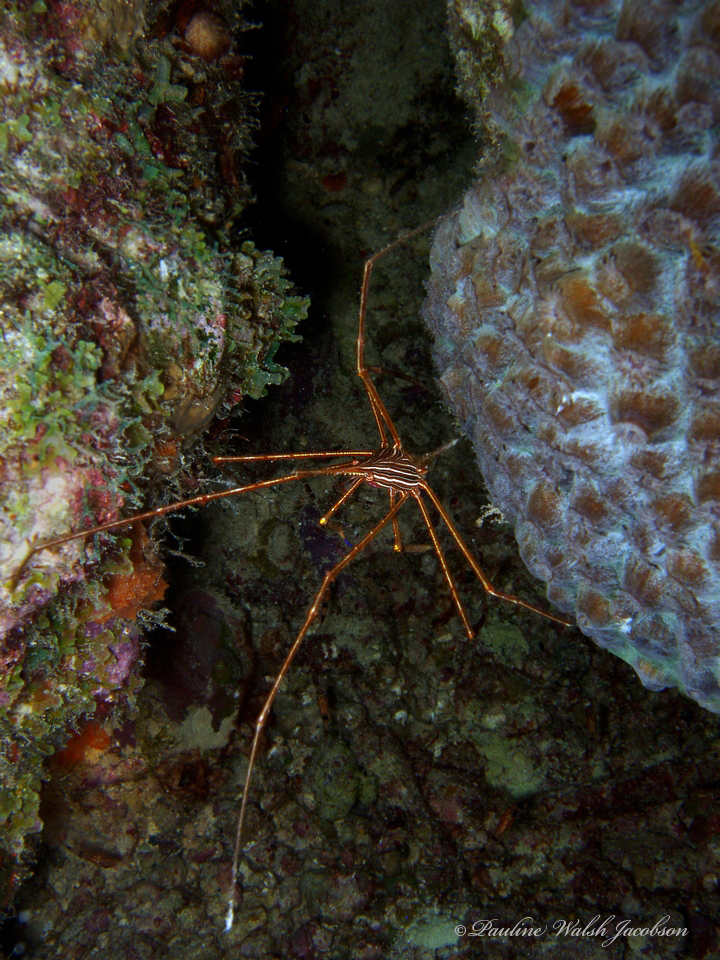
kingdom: Animalia
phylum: Arthropoda
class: Malacostraca
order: Decapoda
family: Inachoididae
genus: Stenorhynchus
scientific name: Stenorhynchus seticornis
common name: Arrow crab
